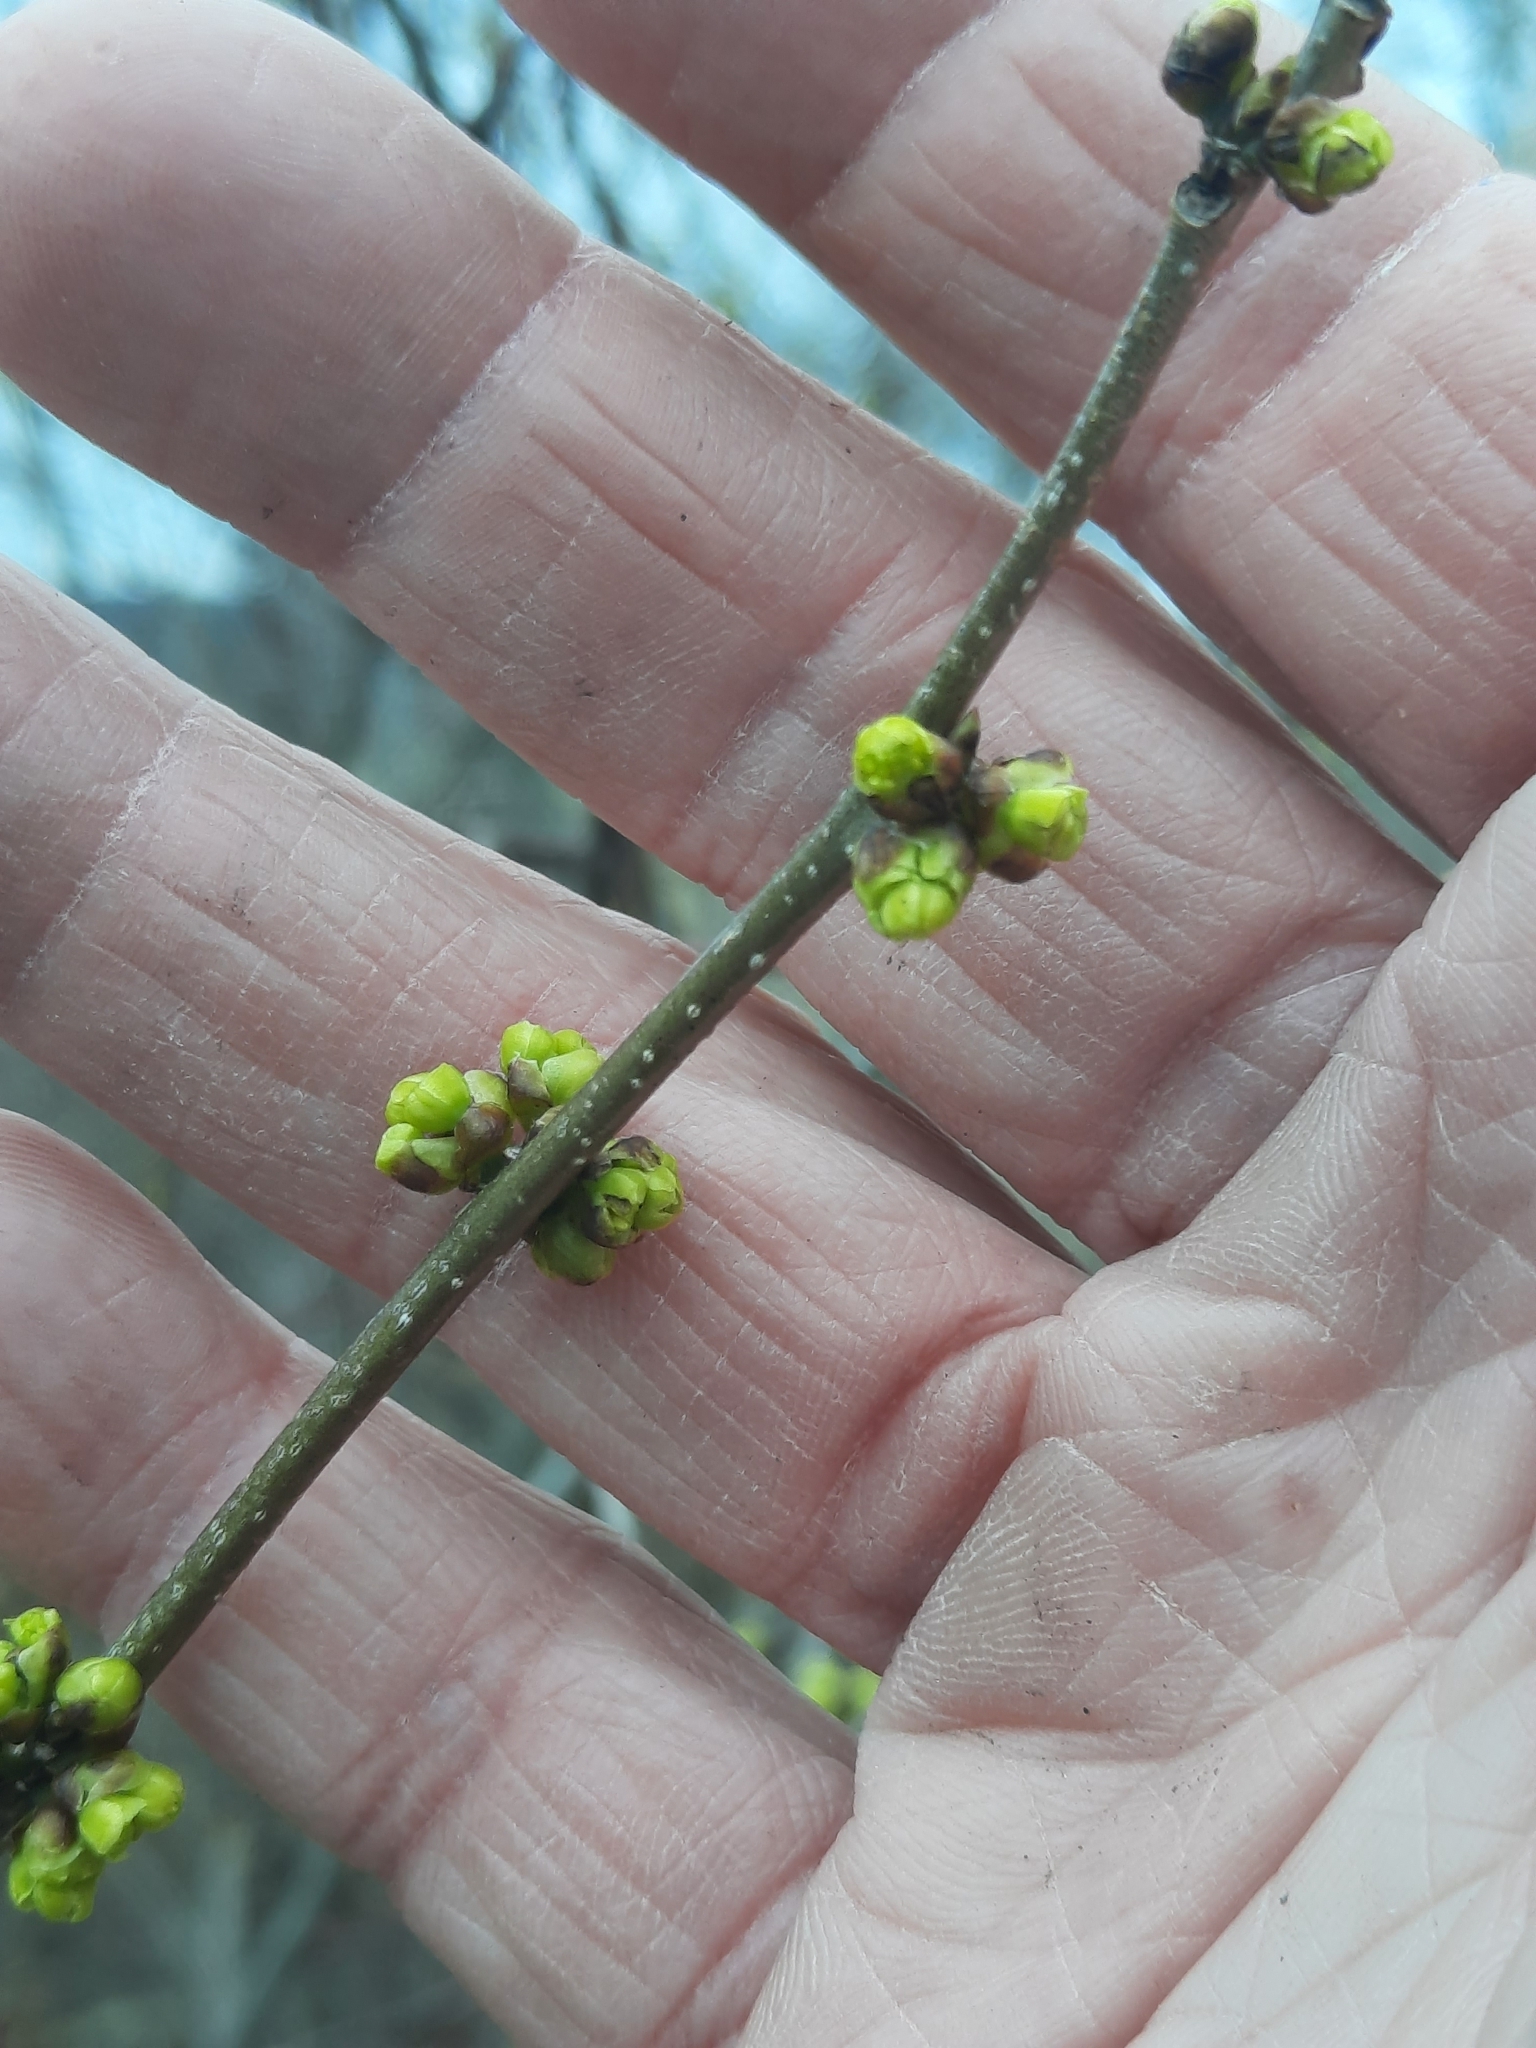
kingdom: Plantae
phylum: Tracheophyta
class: Magnoliopsida
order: Laurales
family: Lauraceae
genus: Lindera
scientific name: Lindera benzoin
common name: Spicebush
